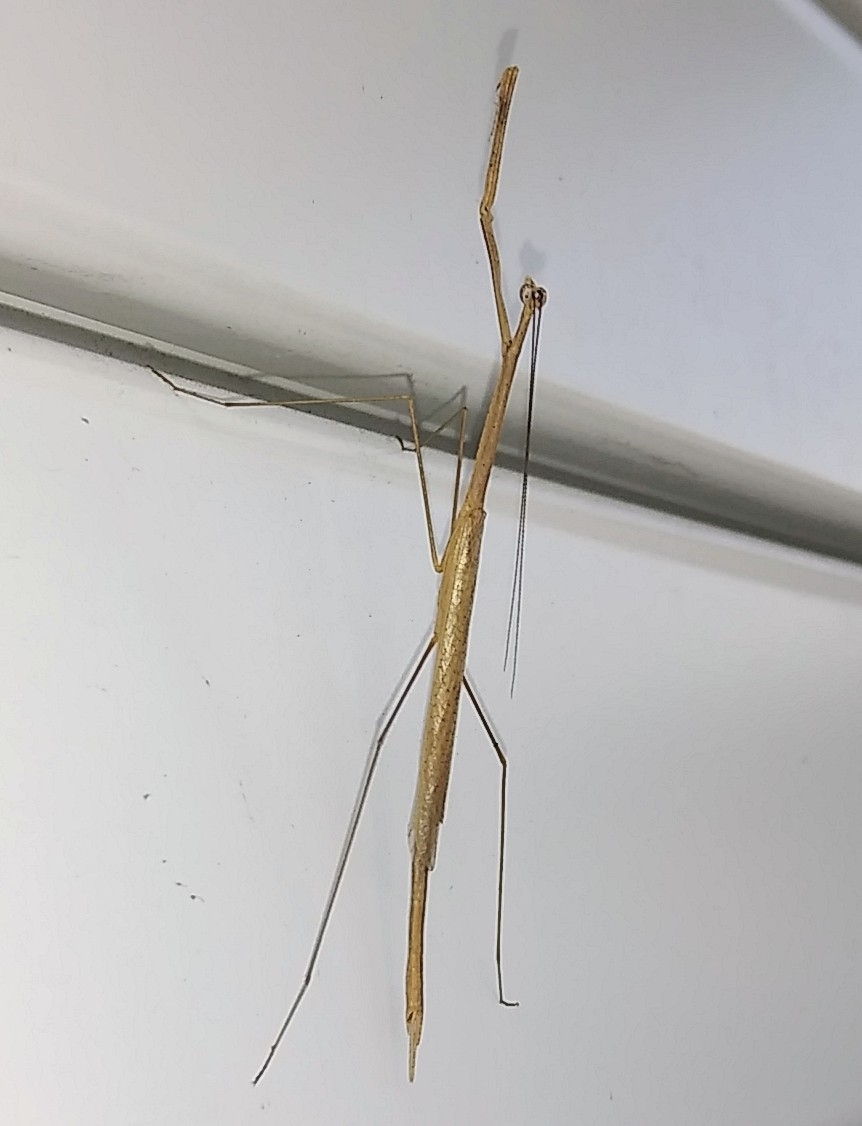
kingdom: Animalia
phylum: Arthropoda
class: Insecta
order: Mantodea
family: Thespidae
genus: Thesprotia
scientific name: Thesprotia graminis
